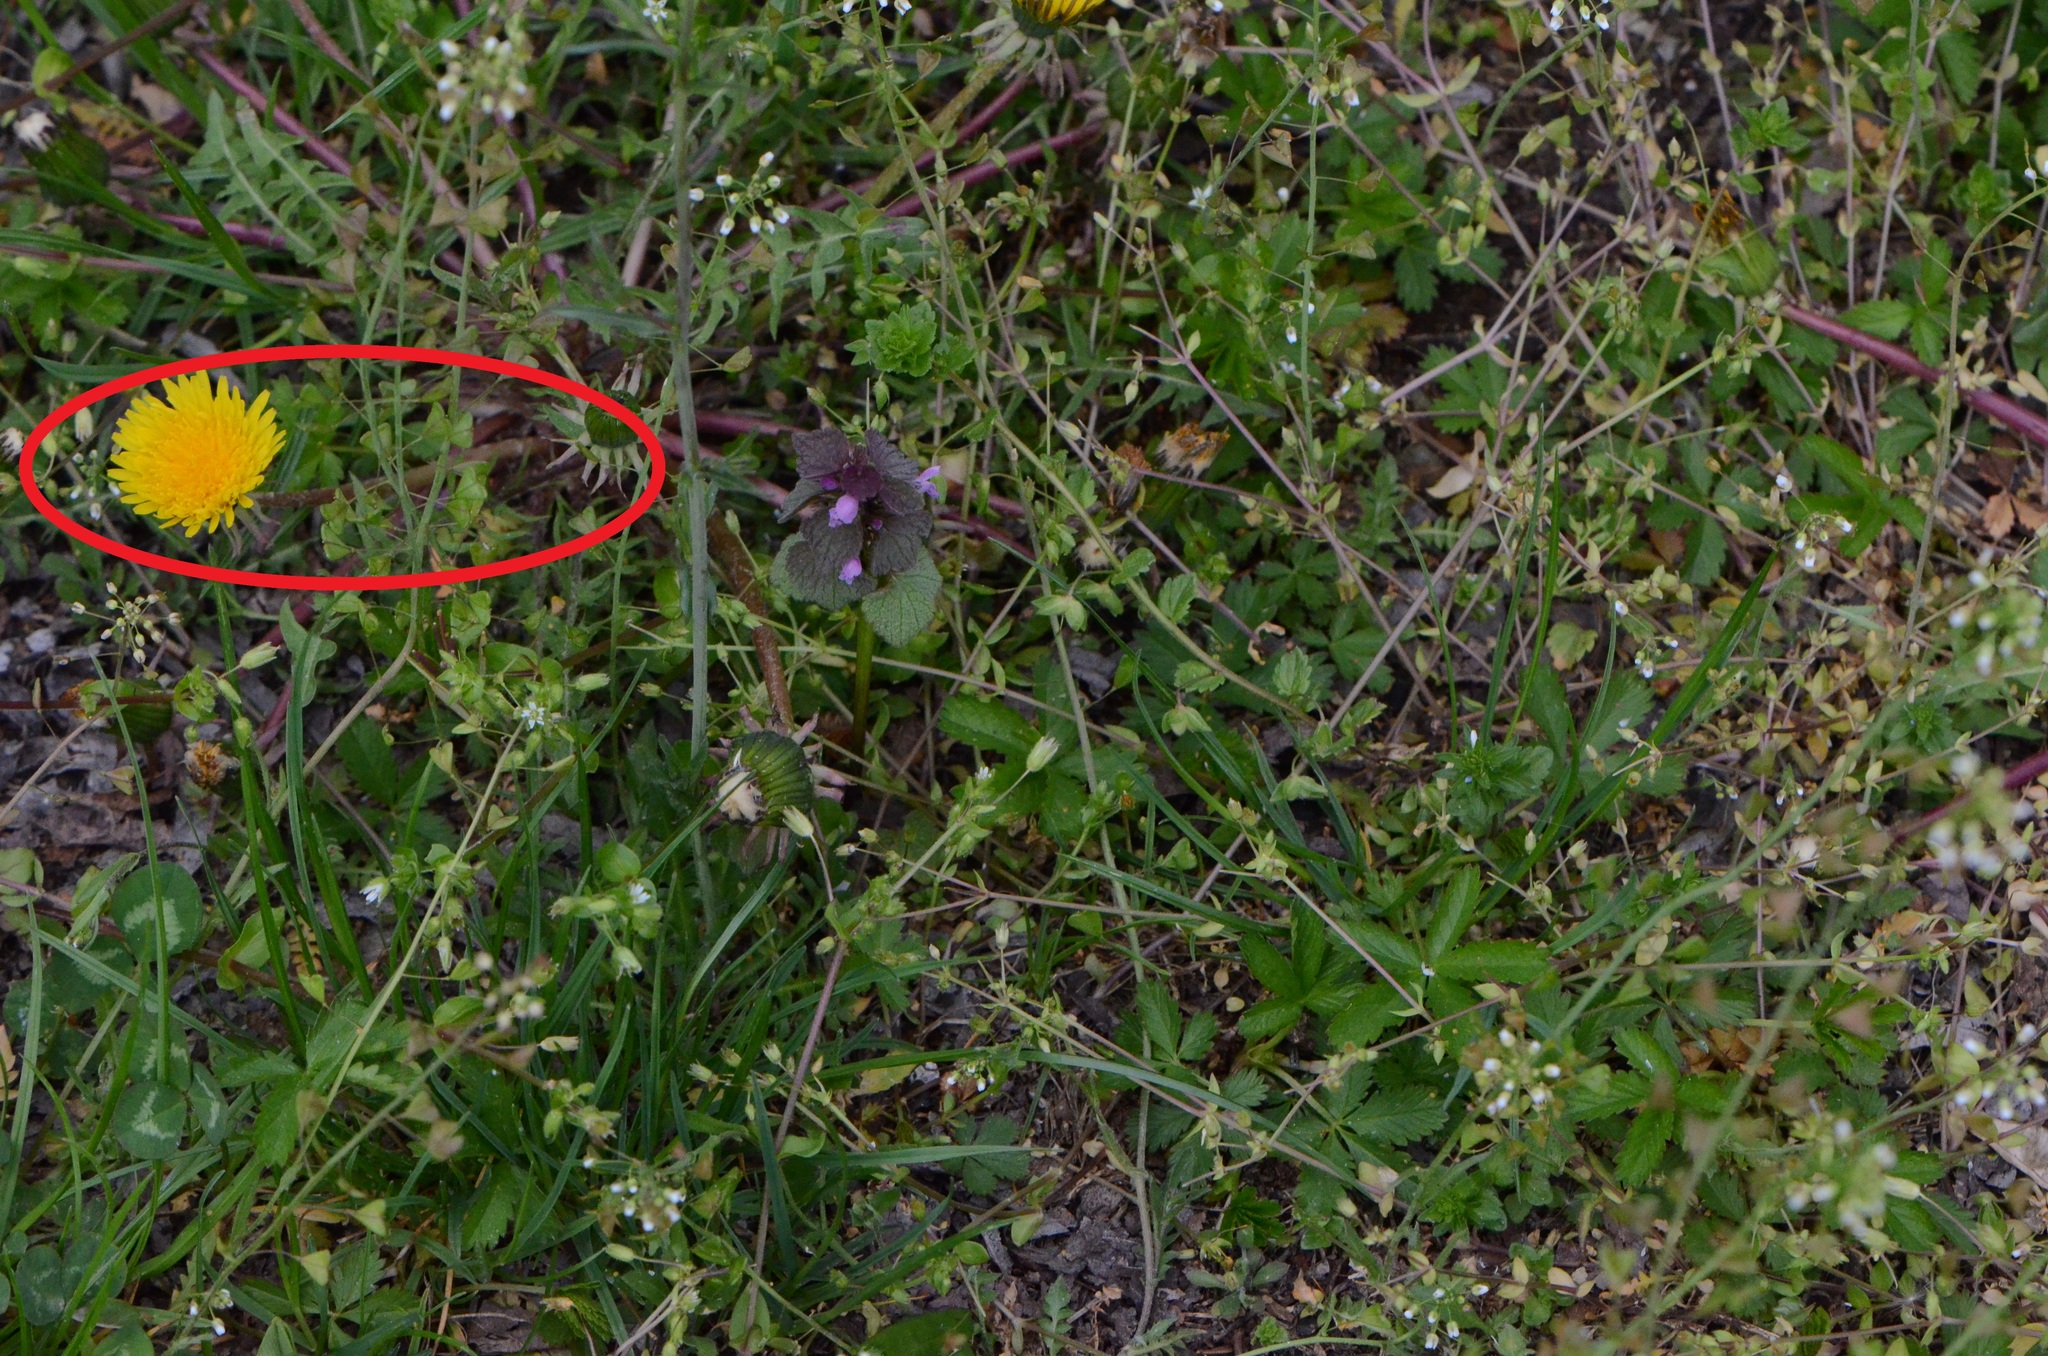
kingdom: Plantae
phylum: Tracheophyta
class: Magnoliopsida
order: Asterales
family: Asteraceae
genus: Taraxacum
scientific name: Taraxacum officinale
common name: Common dandelion
